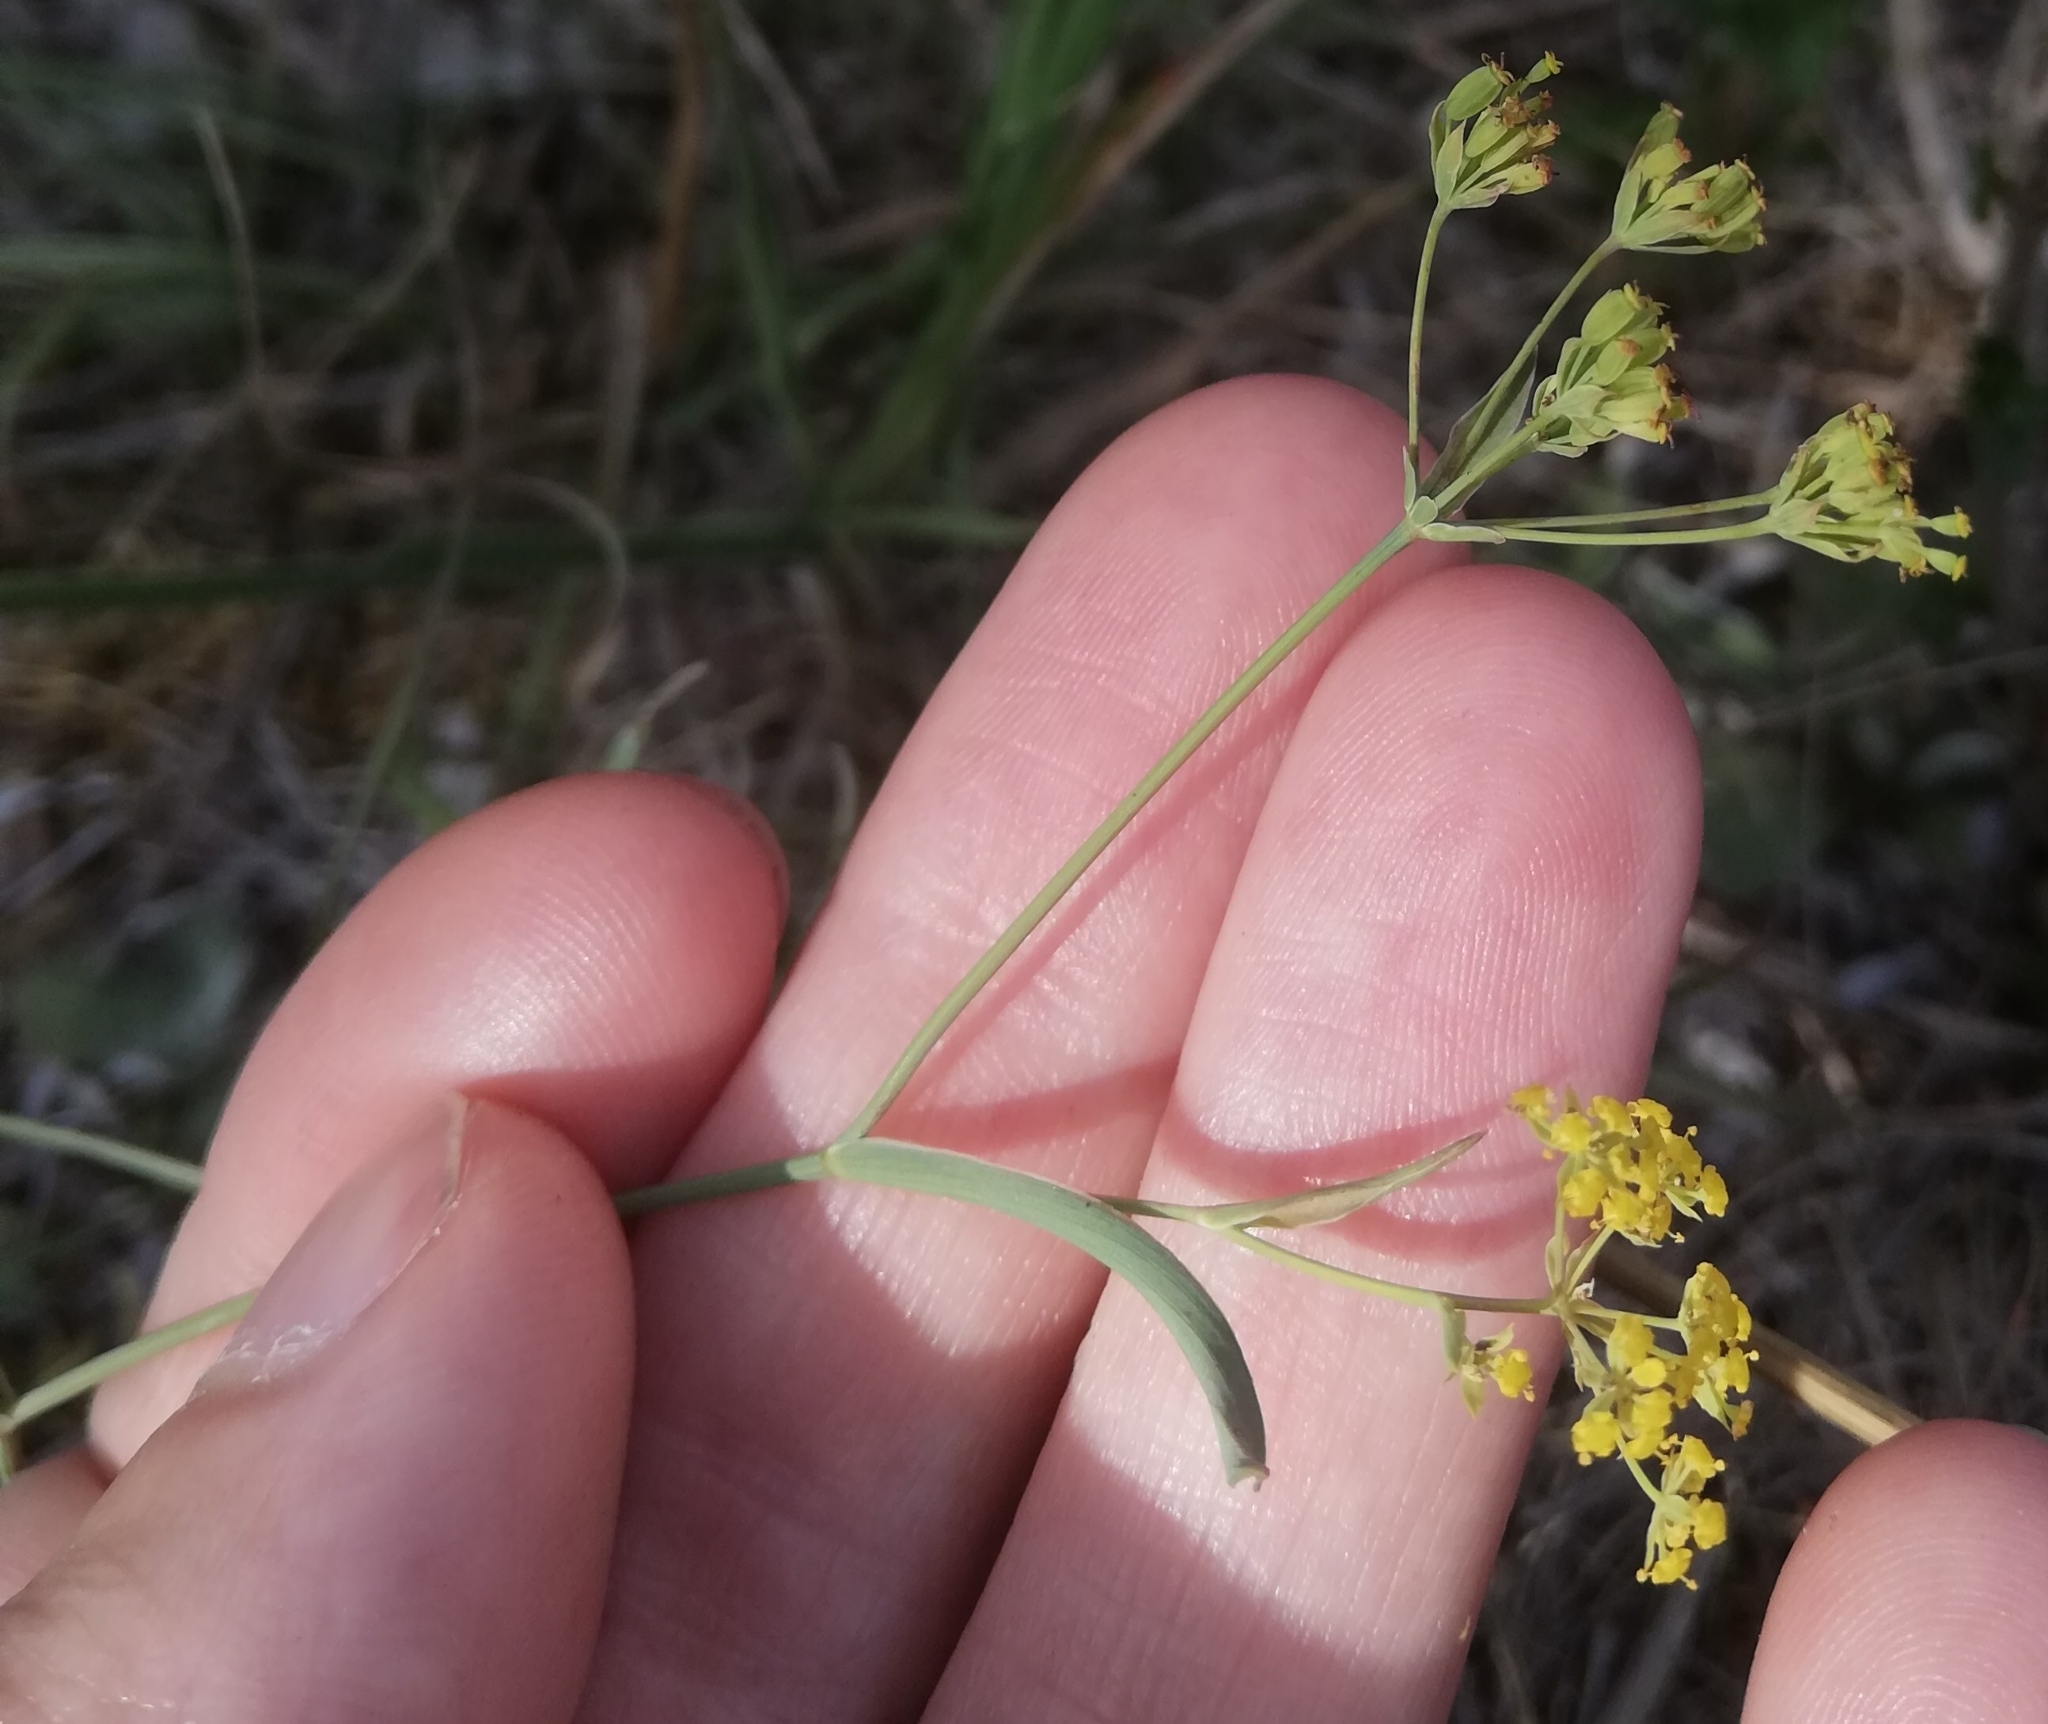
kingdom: Plantae
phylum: Tracheophyta
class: Magnoliopsida
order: Apiales
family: Apiaceae
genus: Bupleurum
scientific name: Bupleurum falcatum
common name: Sickle-leaved hare's-ear
